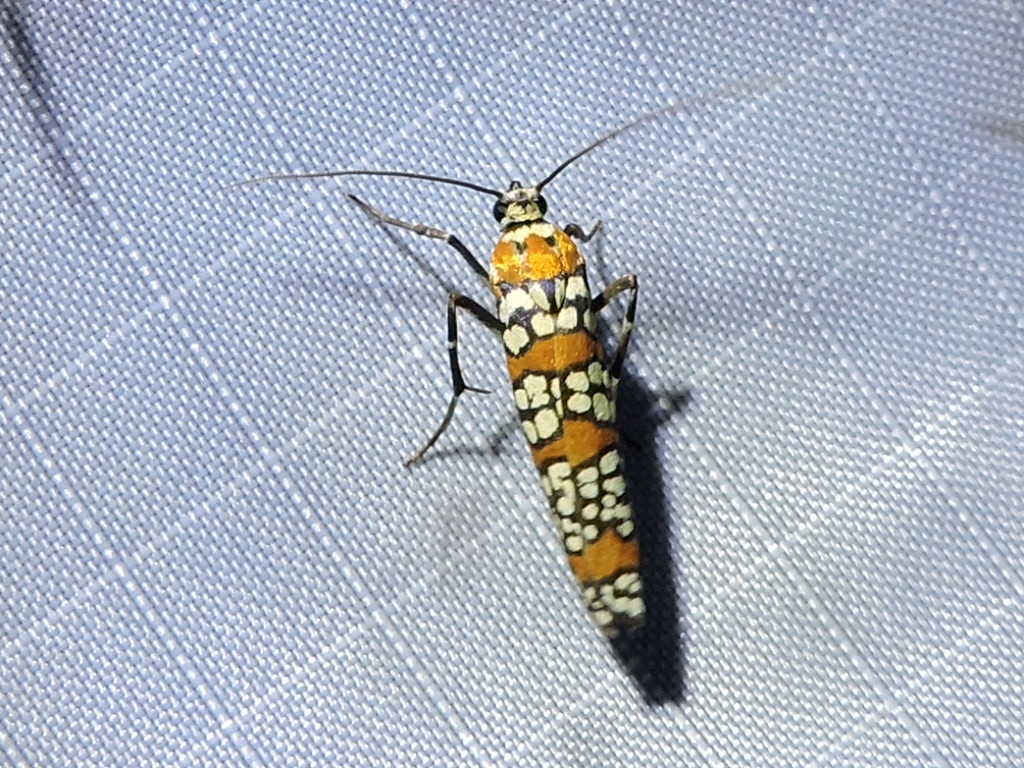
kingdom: Animalia
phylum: Arthropoda
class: Insecta
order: Lepidoptera
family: Attevidae
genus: Atteva
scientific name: Atteva punctella
